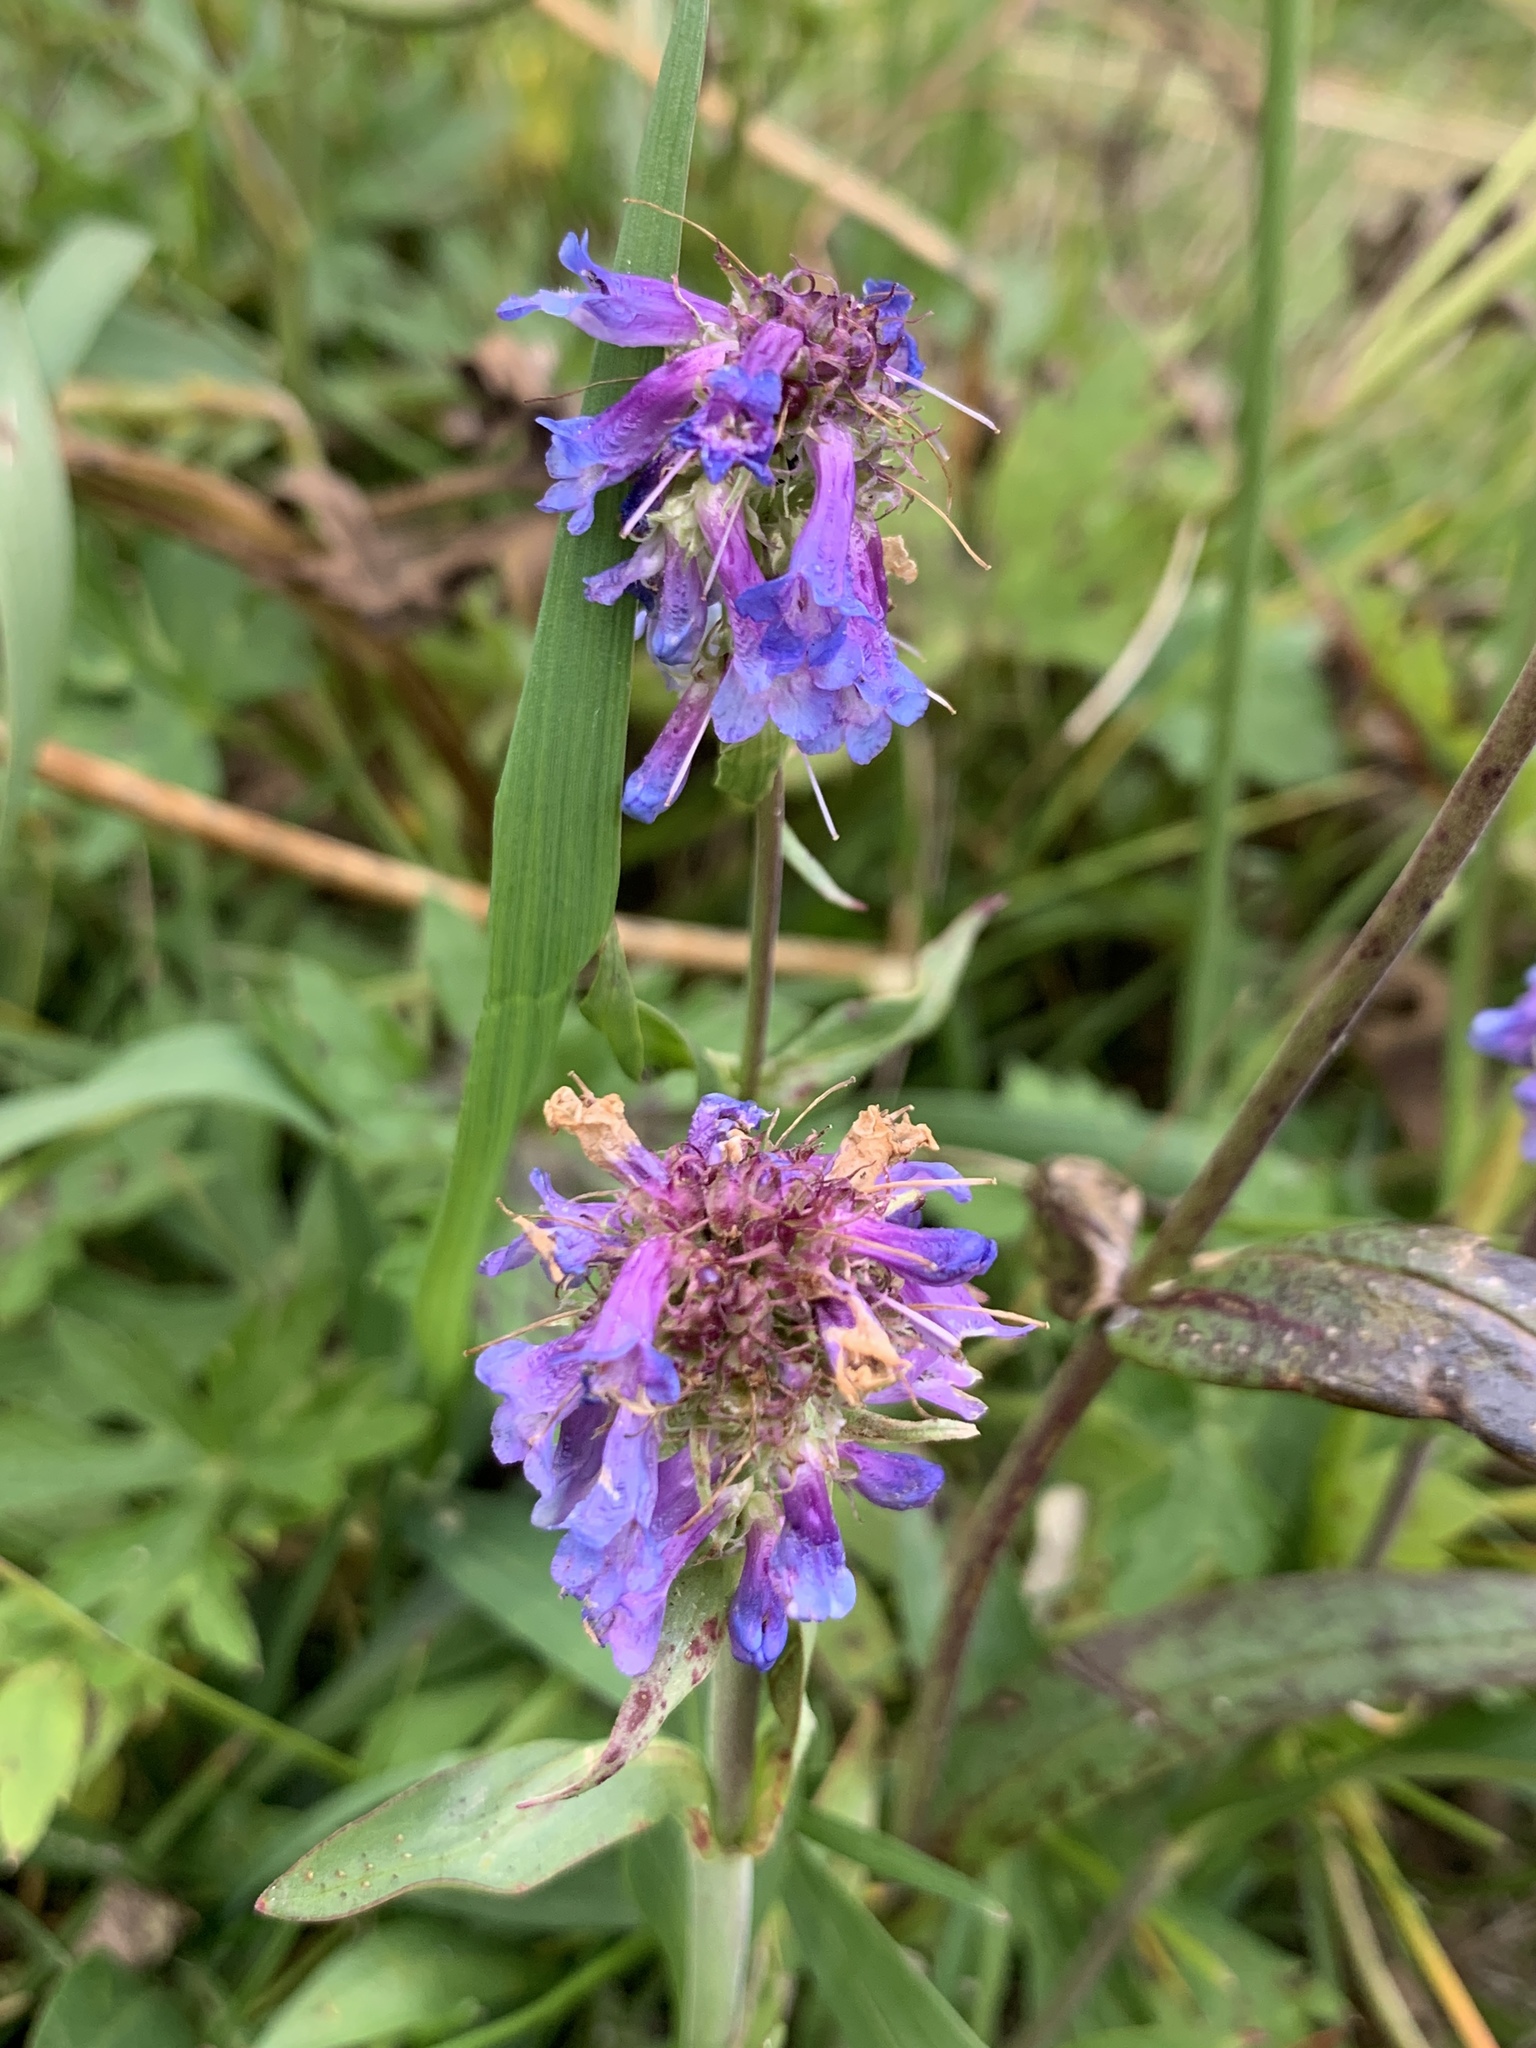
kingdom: Plantae
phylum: Tracheophyta
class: Magnoliopsida
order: Lamiales
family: Plantaginaceae
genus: Penstemon
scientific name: Penstemon procerus
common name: Small-flower penstemon
